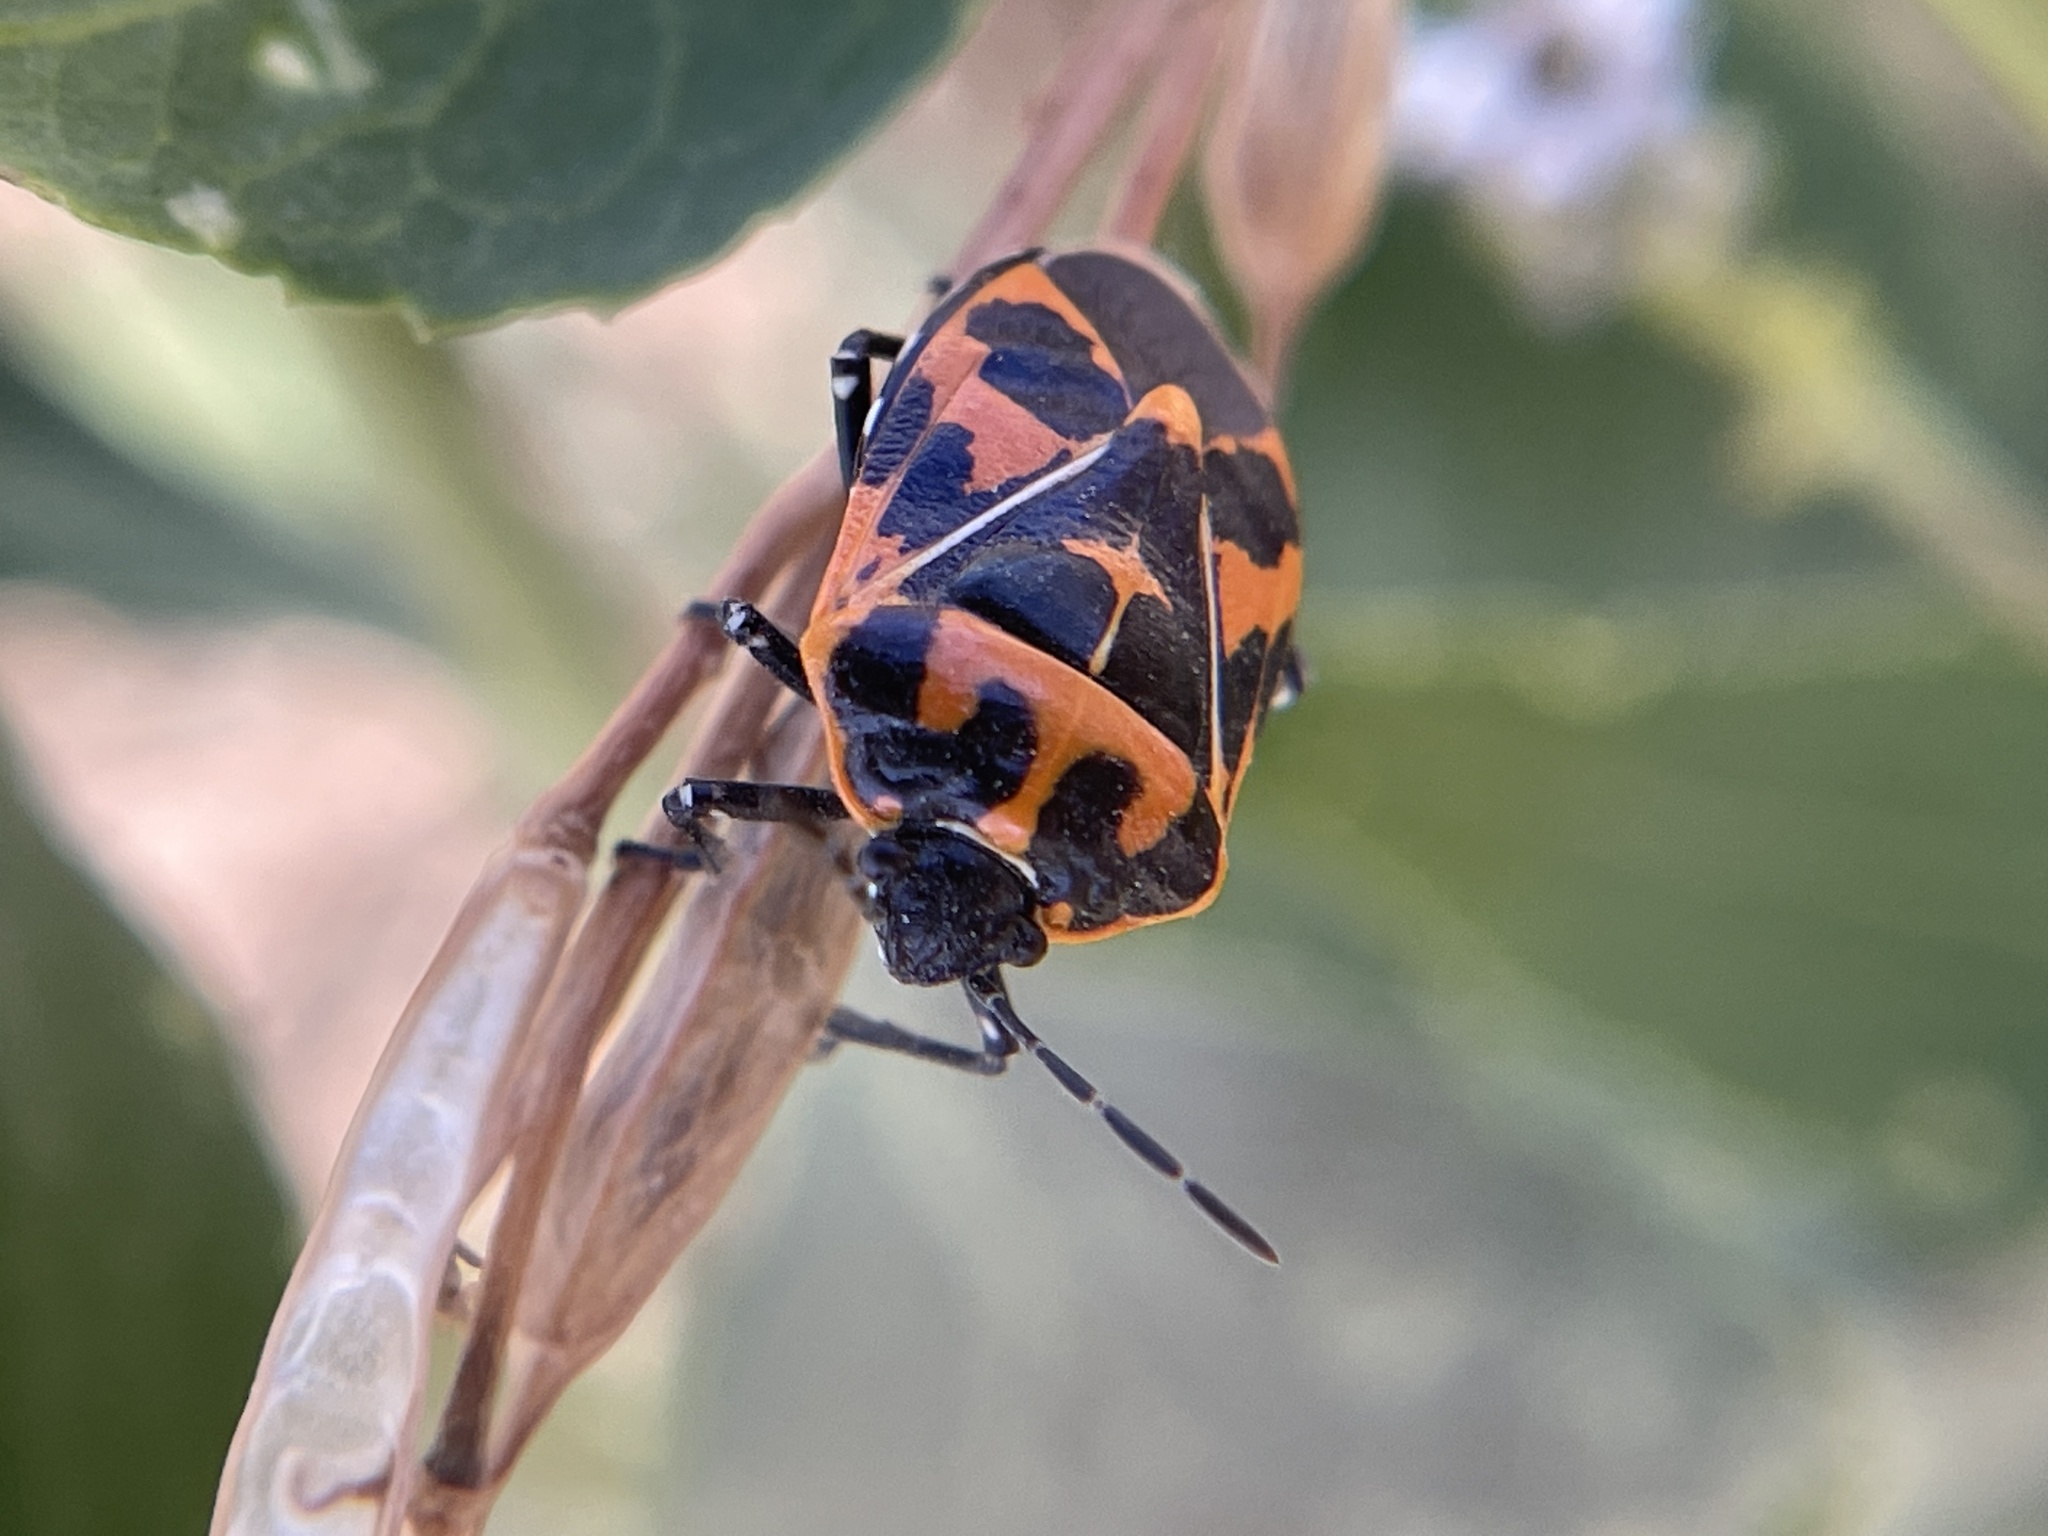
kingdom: Animalia
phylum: Arthropoda
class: Insecta
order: Hemiptera
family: Pentatomidae
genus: Murgantia
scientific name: Murgantia histrionica
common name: Harlequin bug
